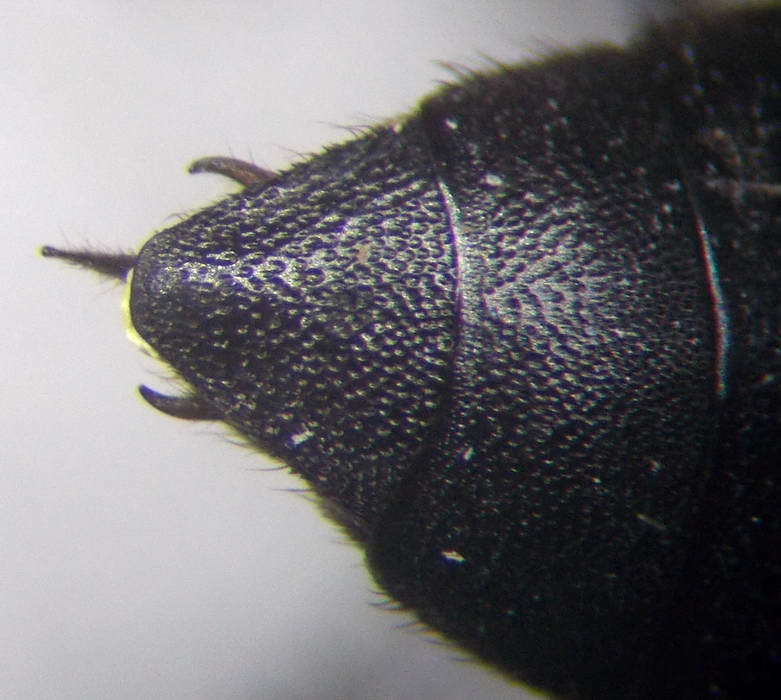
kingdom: Animalia
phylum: Arthropoda
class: Insecta
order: Hymenoptera
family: Crabronidae
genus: Stizoides
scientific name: Stizoides tridentatus
